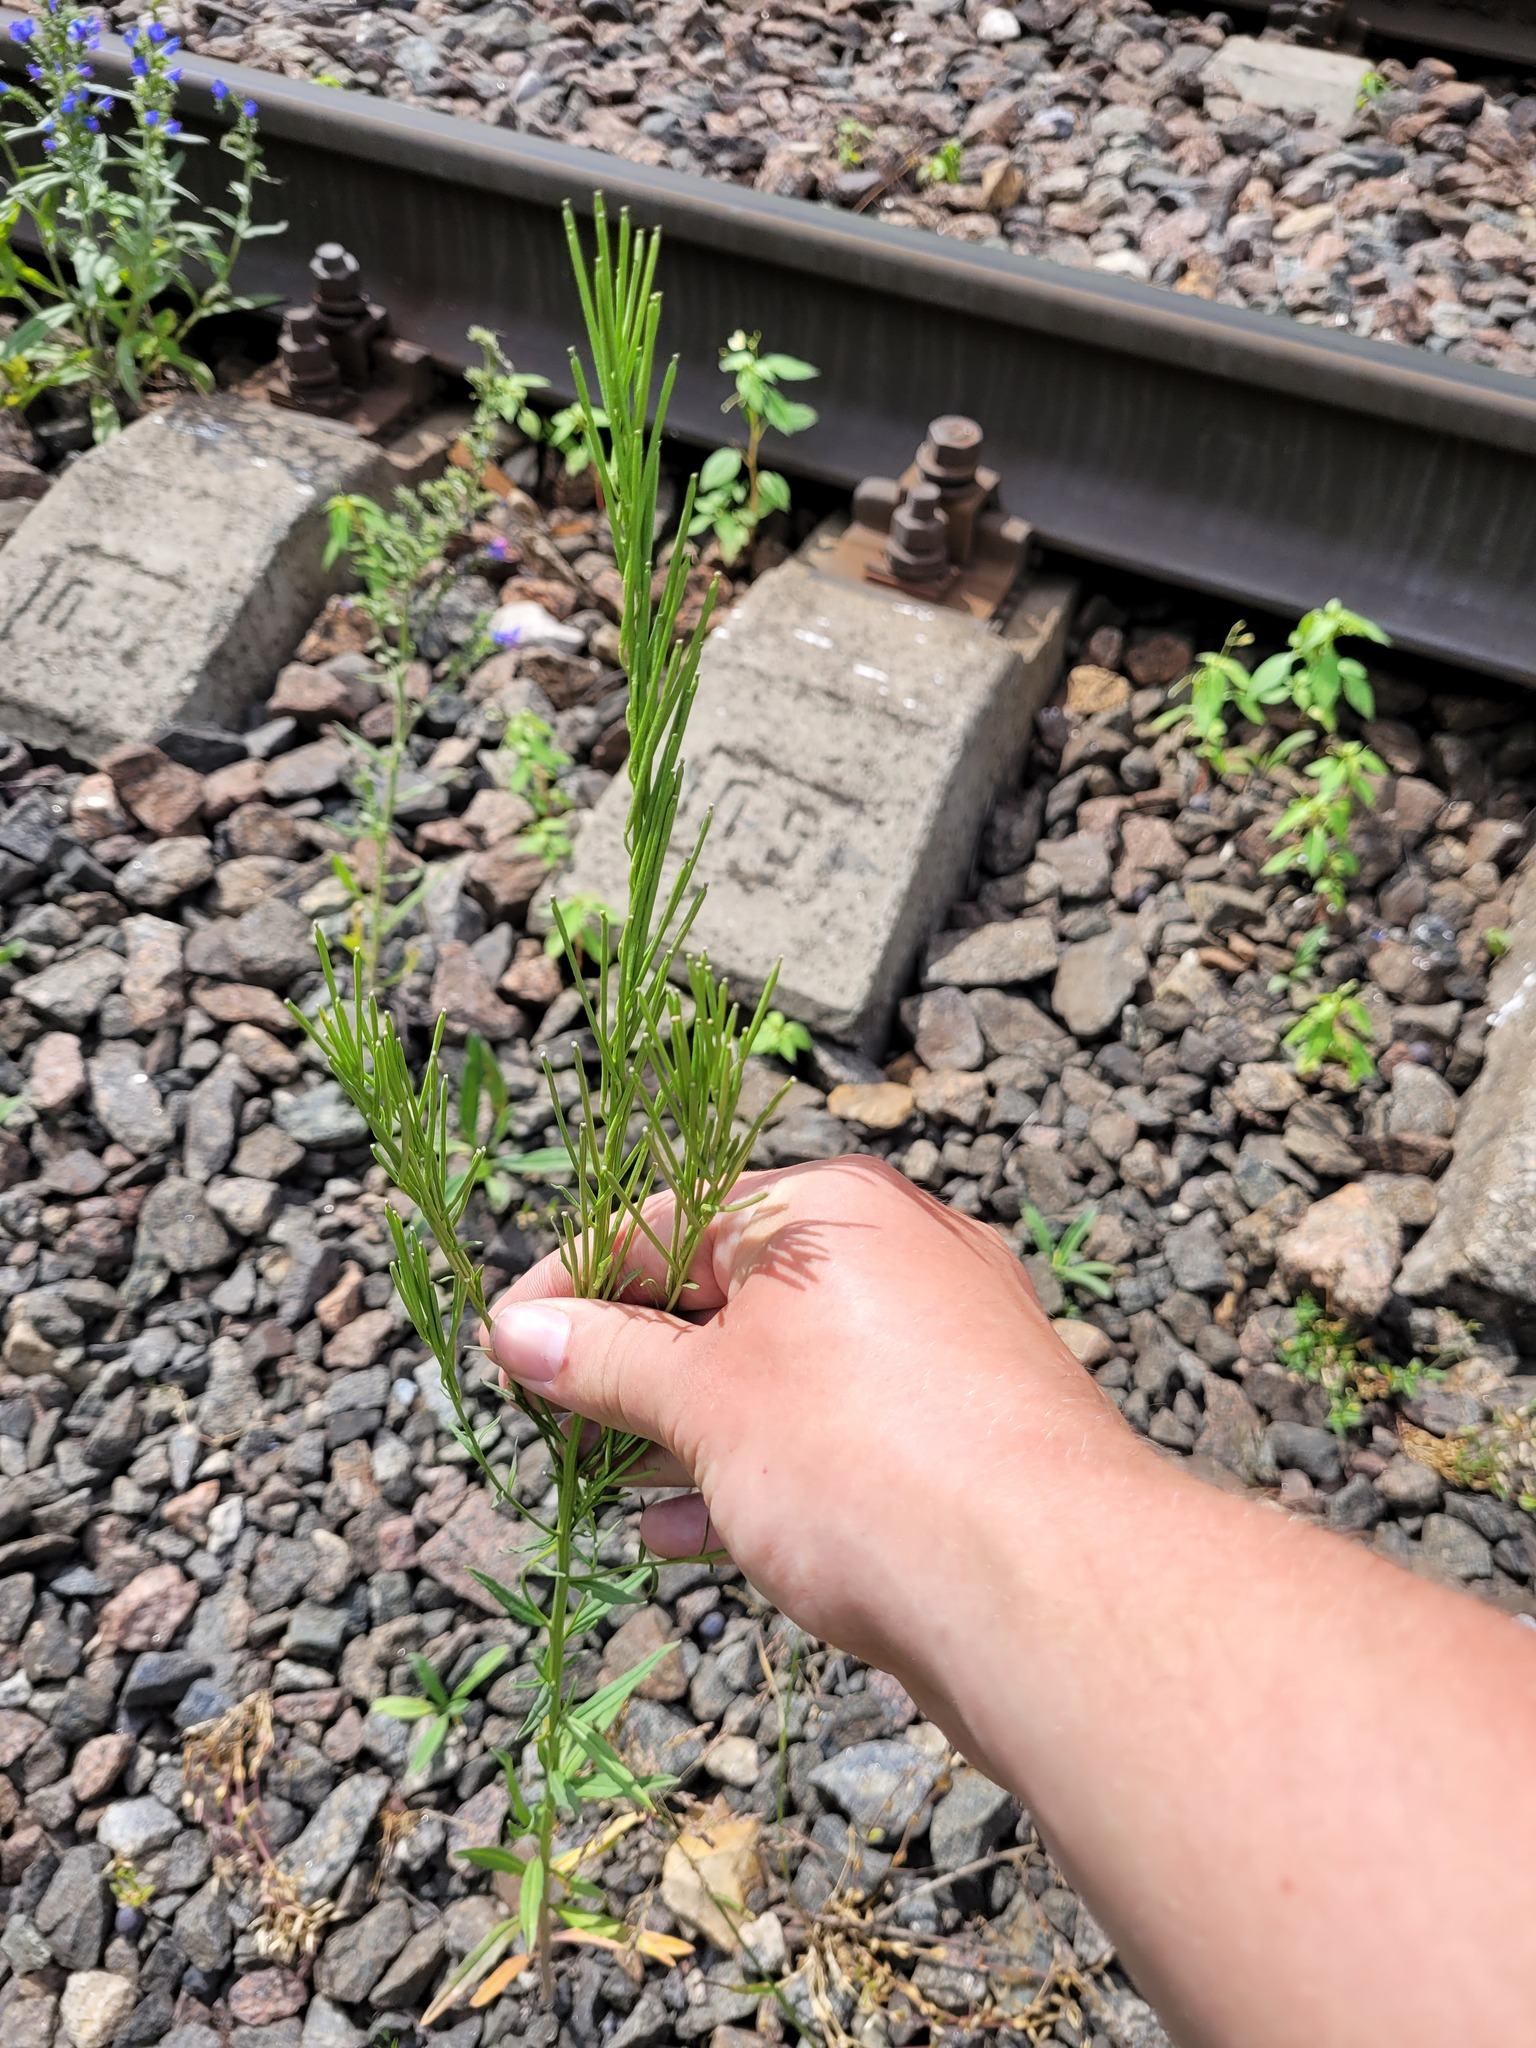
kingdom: Plantae
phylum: Tracheophyta
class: Magnoliopsida
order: Brassicales
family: Brassicaceae
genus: Erysimum
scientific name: Erysimum hieraciifolium
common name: European wallflower
